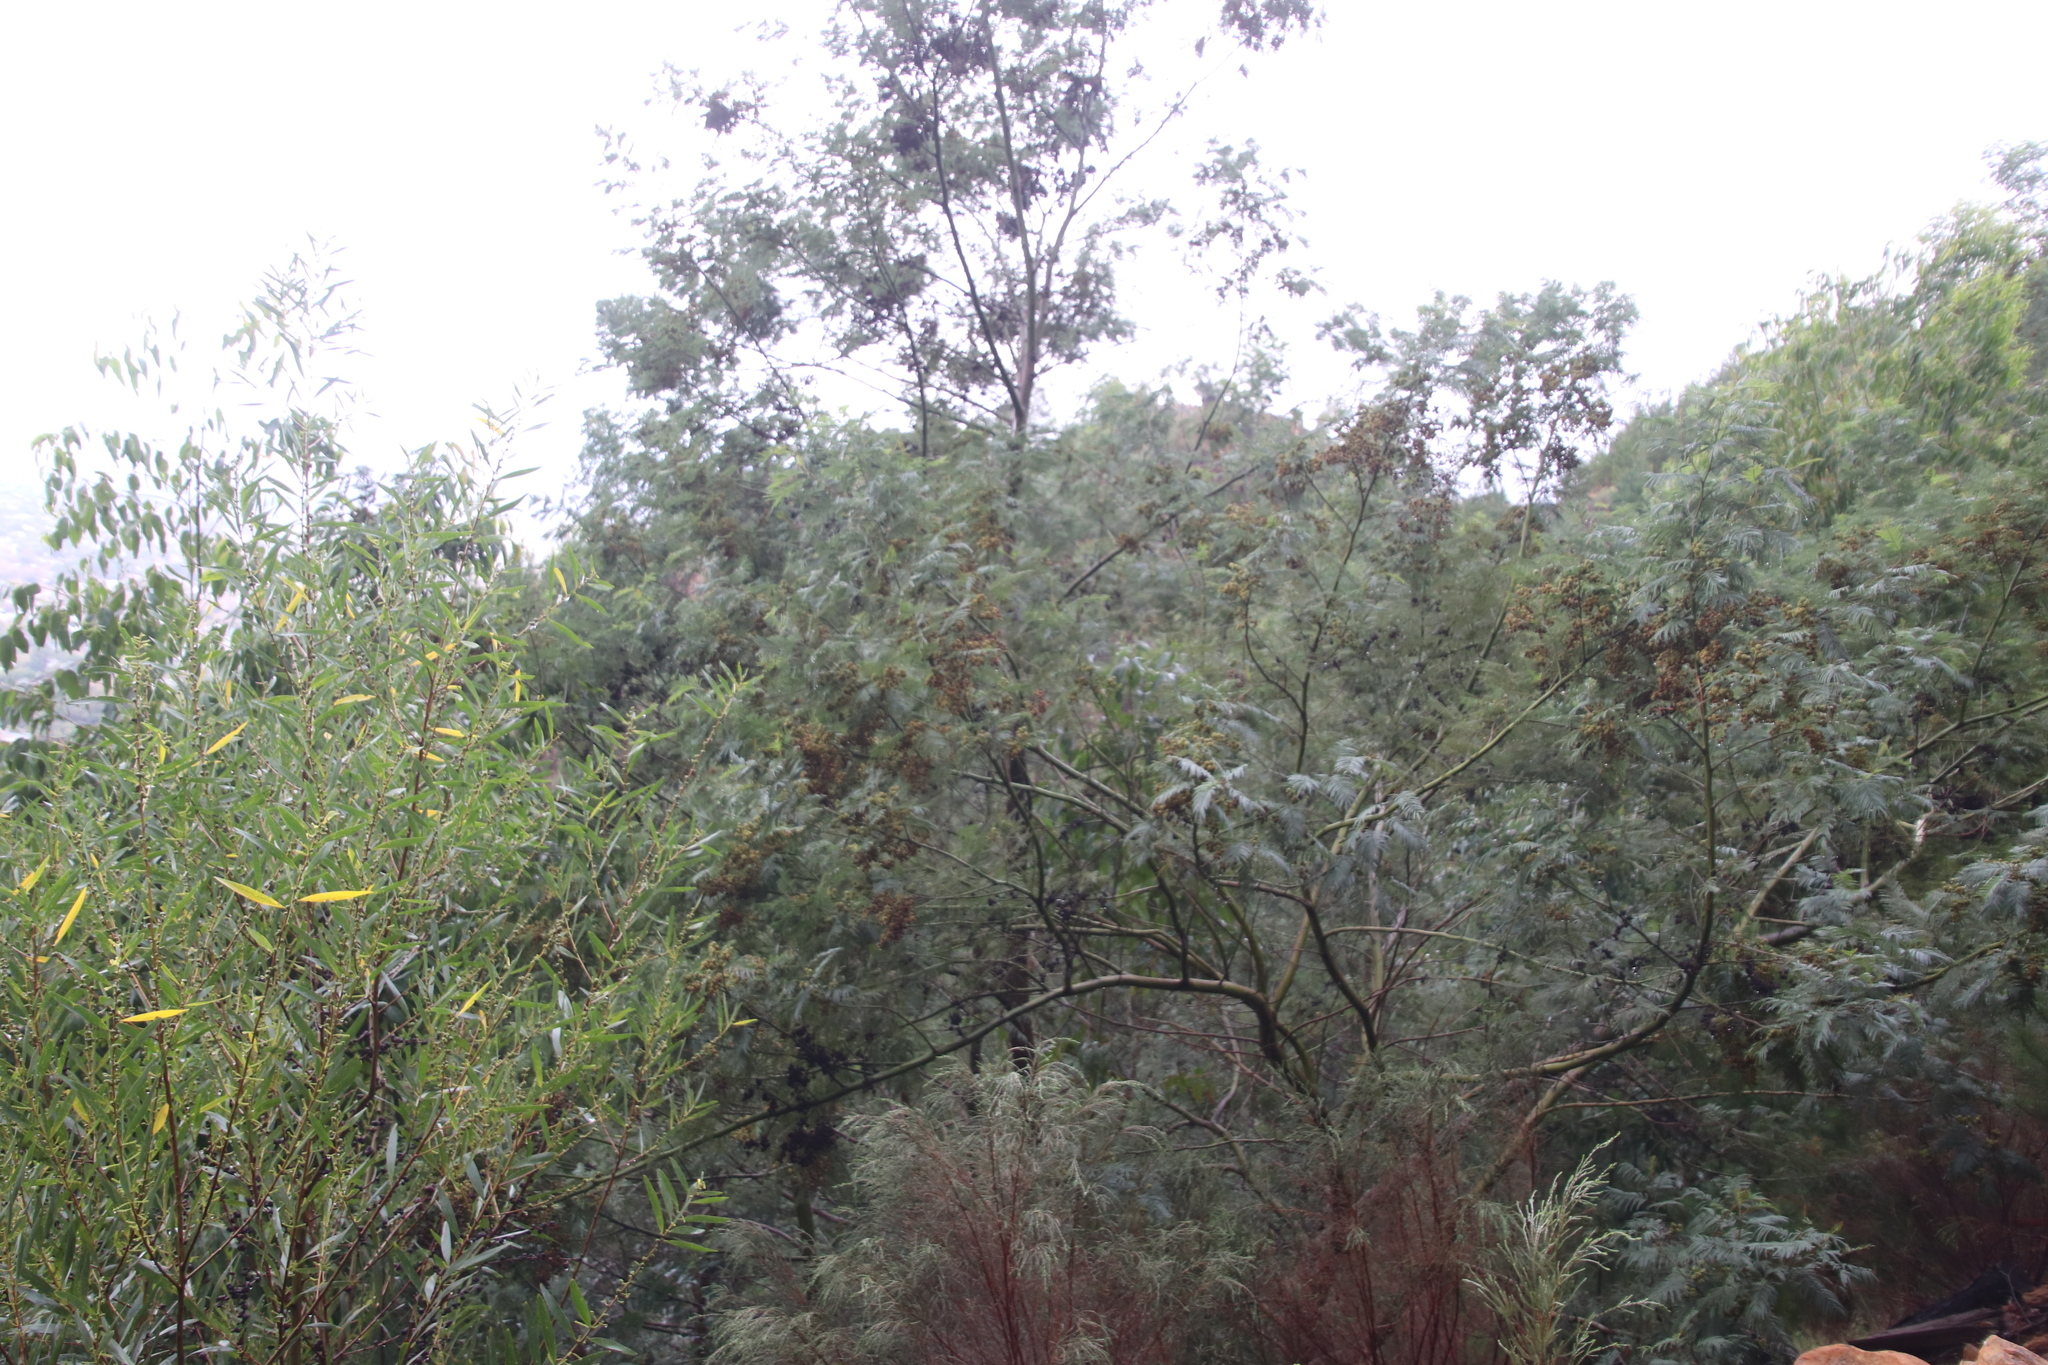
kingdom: Plantae
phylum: Tracheophyta
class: Magnoliopsida
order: Fabales
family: Fabaceae
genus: Acacia
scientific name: Acacia mearnsii
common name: Black wattle
